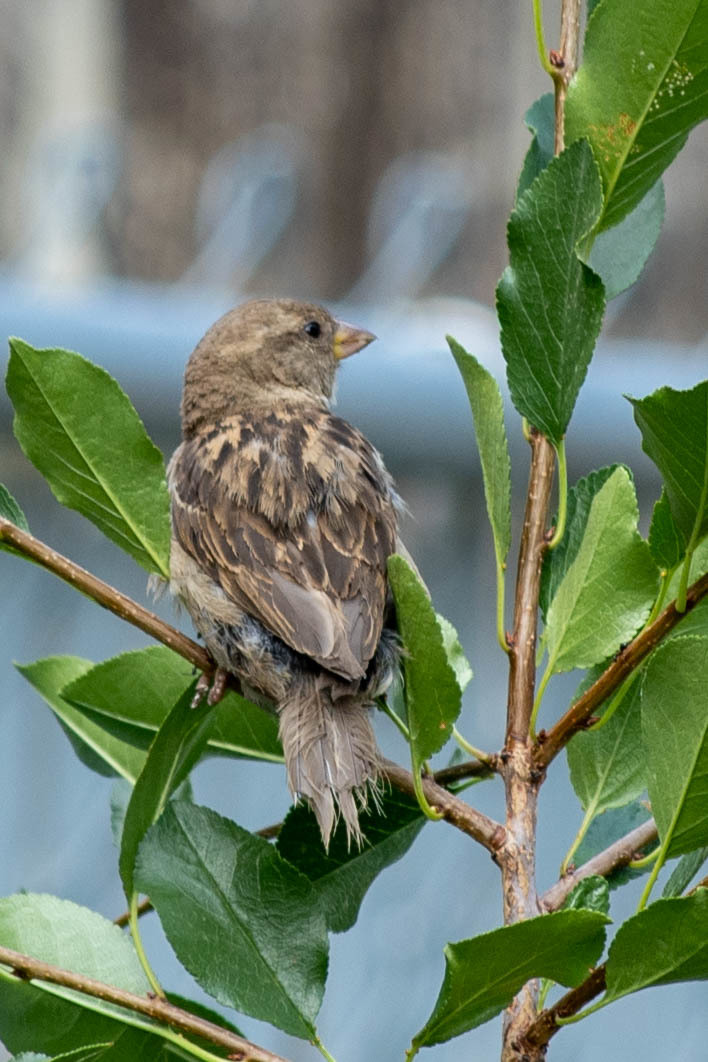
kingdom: Animalia
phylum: Chordata
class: Aves
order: Passeriformes
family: Passeridae
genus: Passer
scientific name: Passer domesticus
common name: House sparrow
